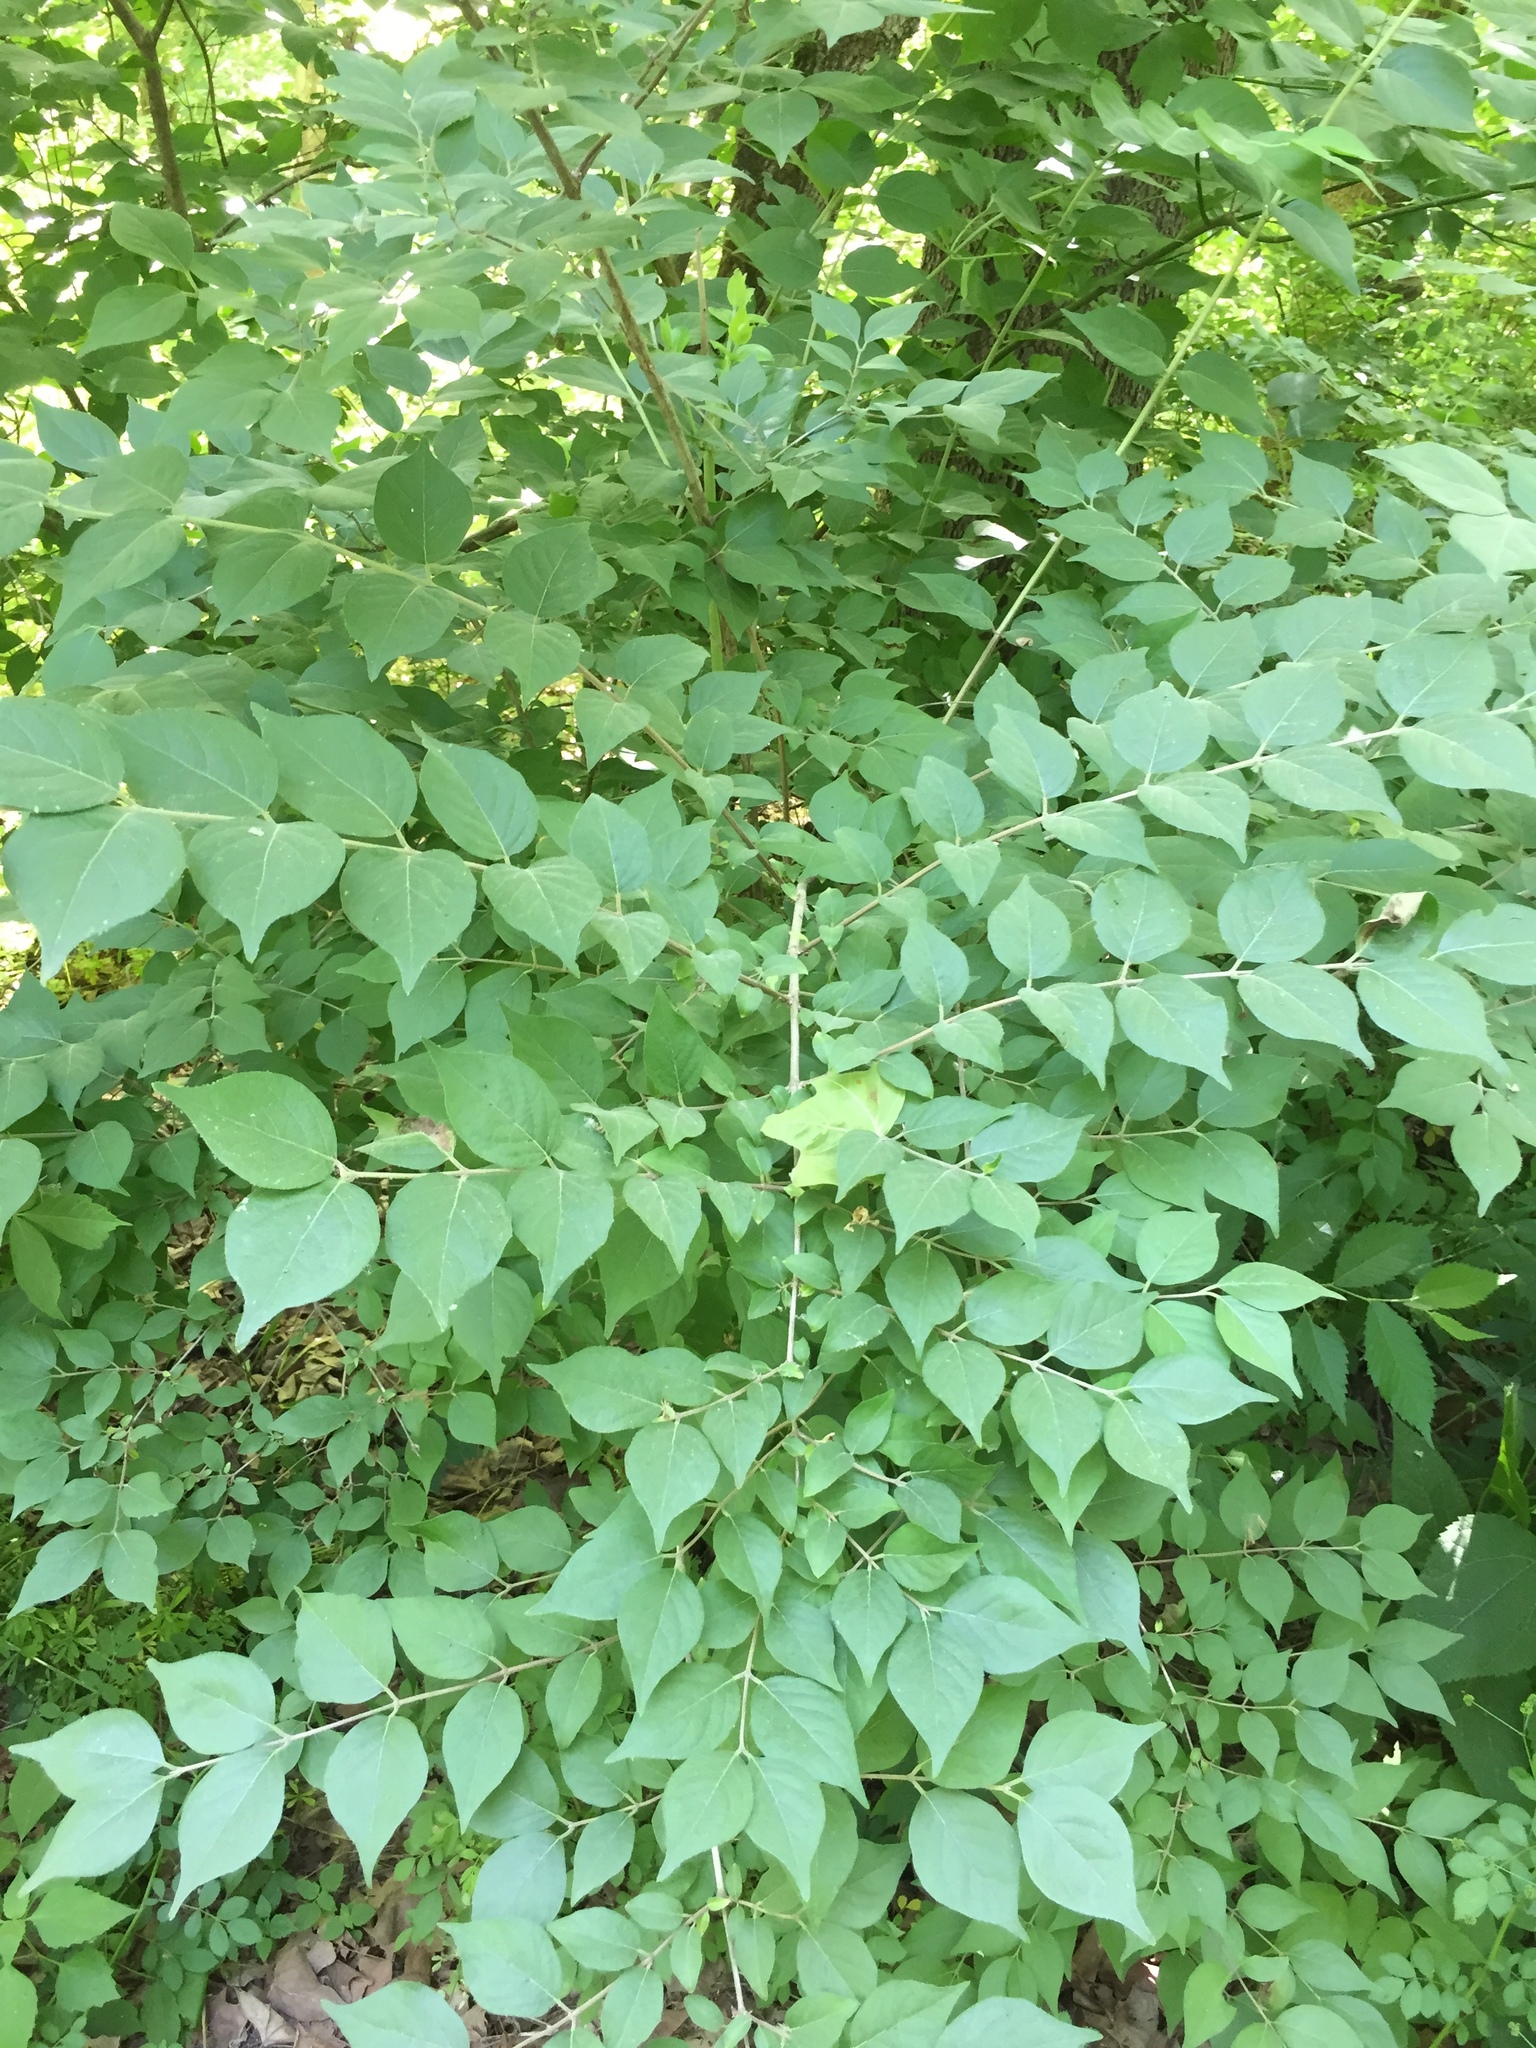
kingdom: Plantae
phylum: Tracheophyta
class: Magnoliopsida
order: Dipsacales
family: Caprifoliaceae
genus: Lonicera
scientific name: Lonicera maackii
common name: Amur honeysuckle
